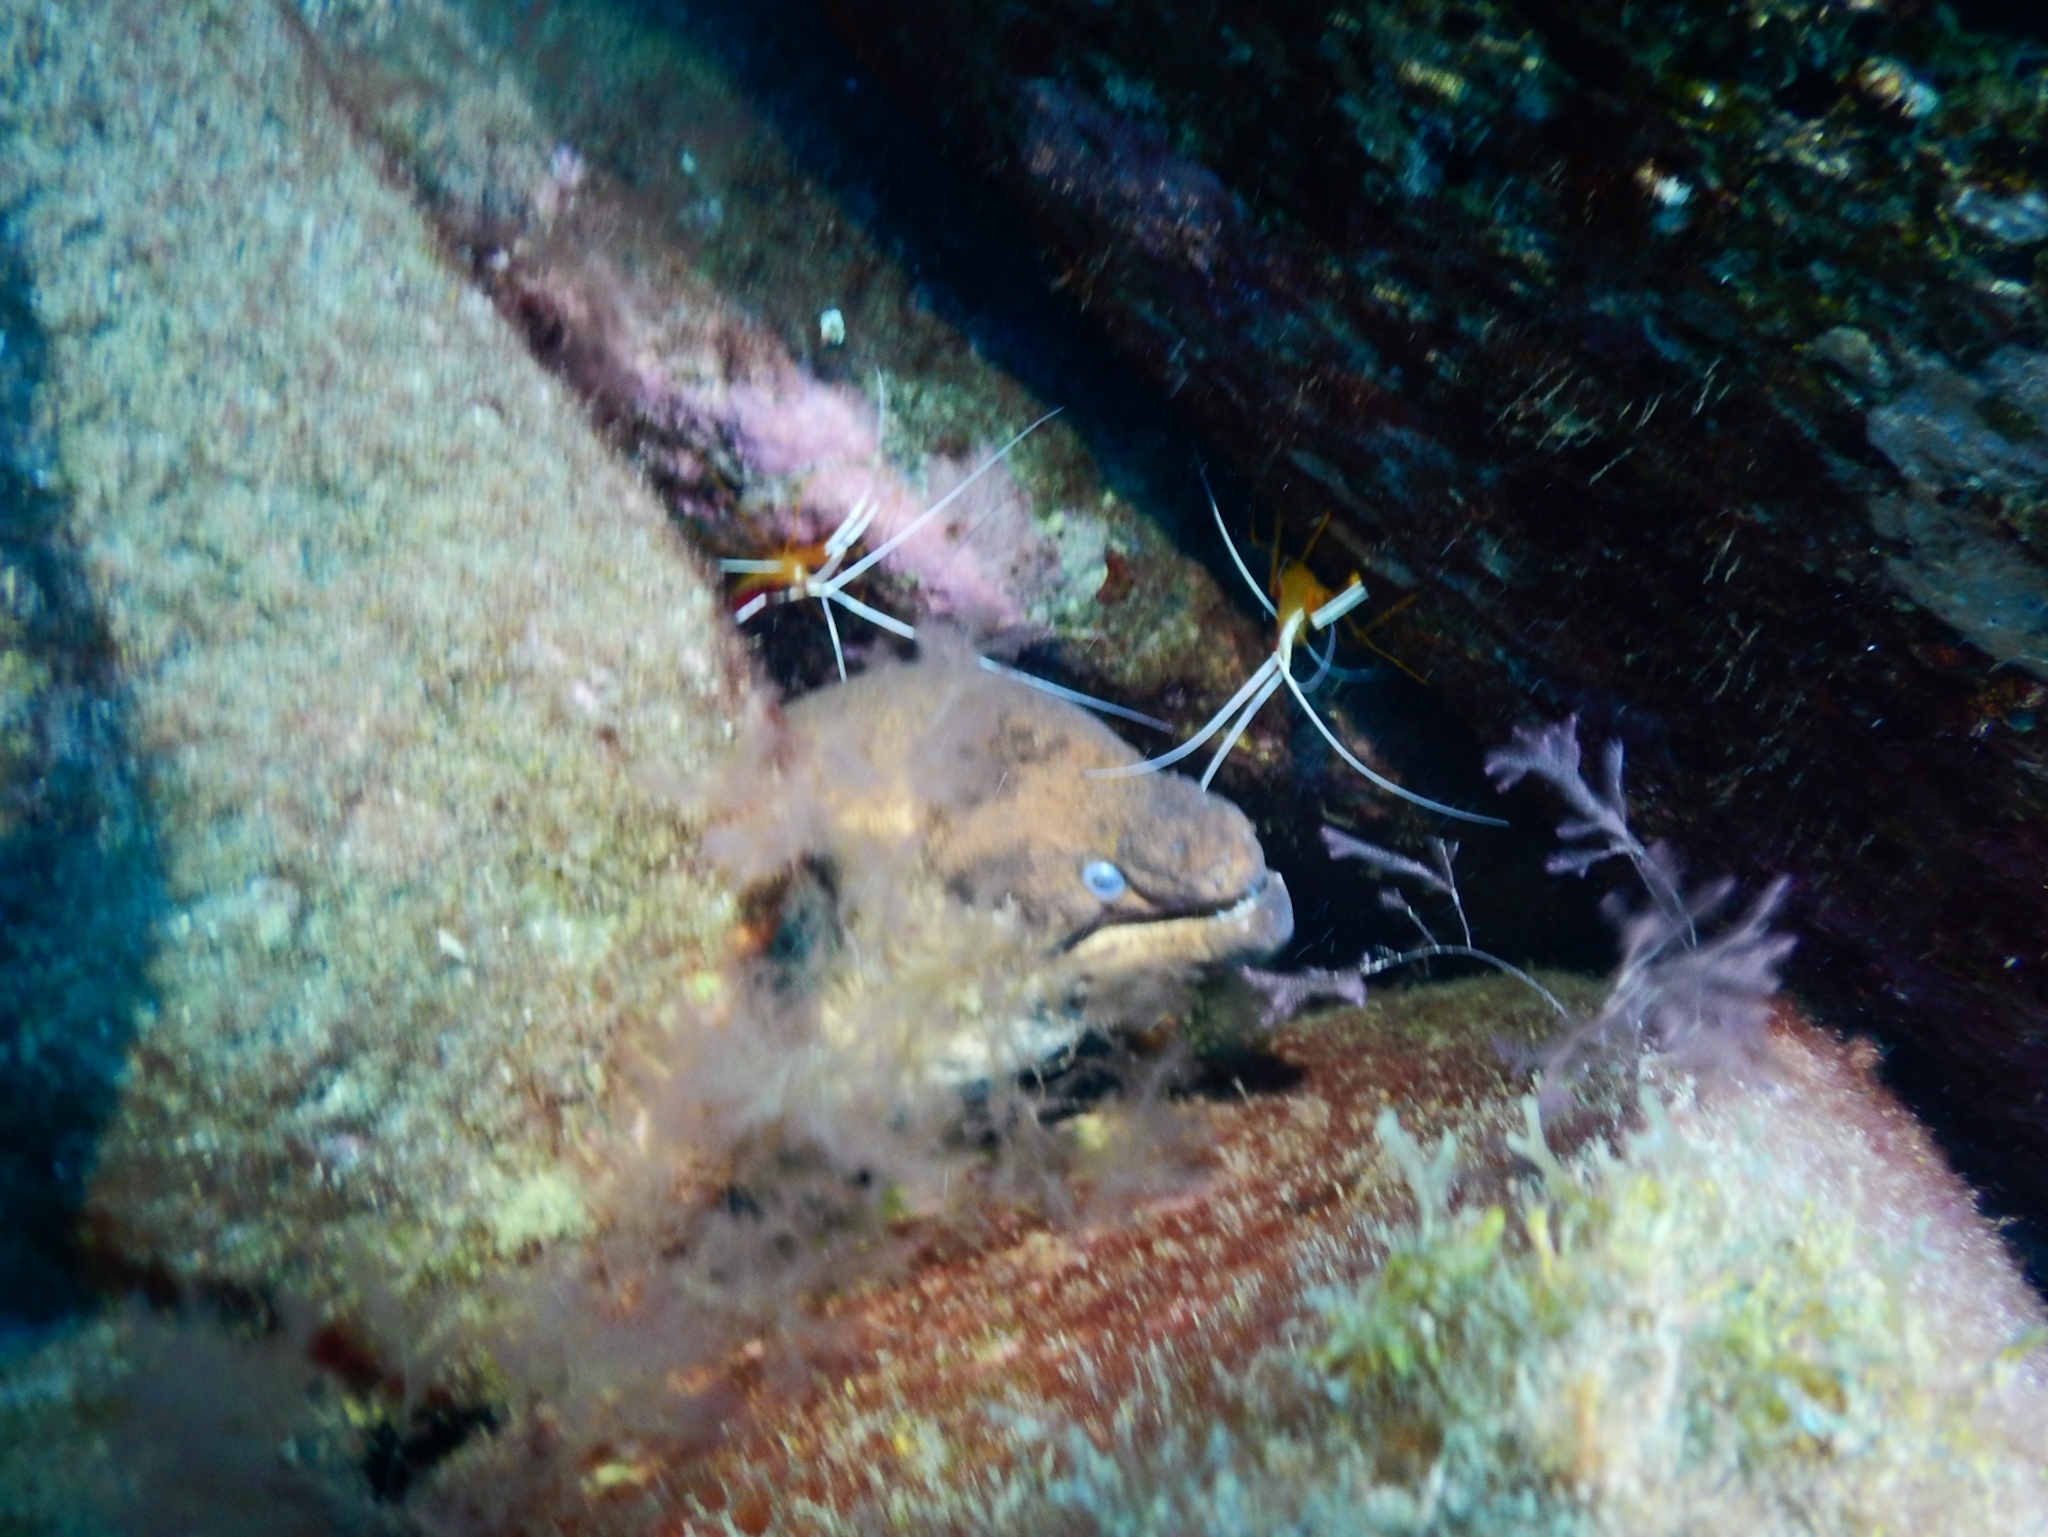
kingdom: Animalia
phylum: Arthropoda
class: Malacostraca
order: Decapoda
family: Lysmatidae
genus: Lysmata
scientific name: Lysmata grabhami
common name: Scarlet-striped cleaning shrimp
